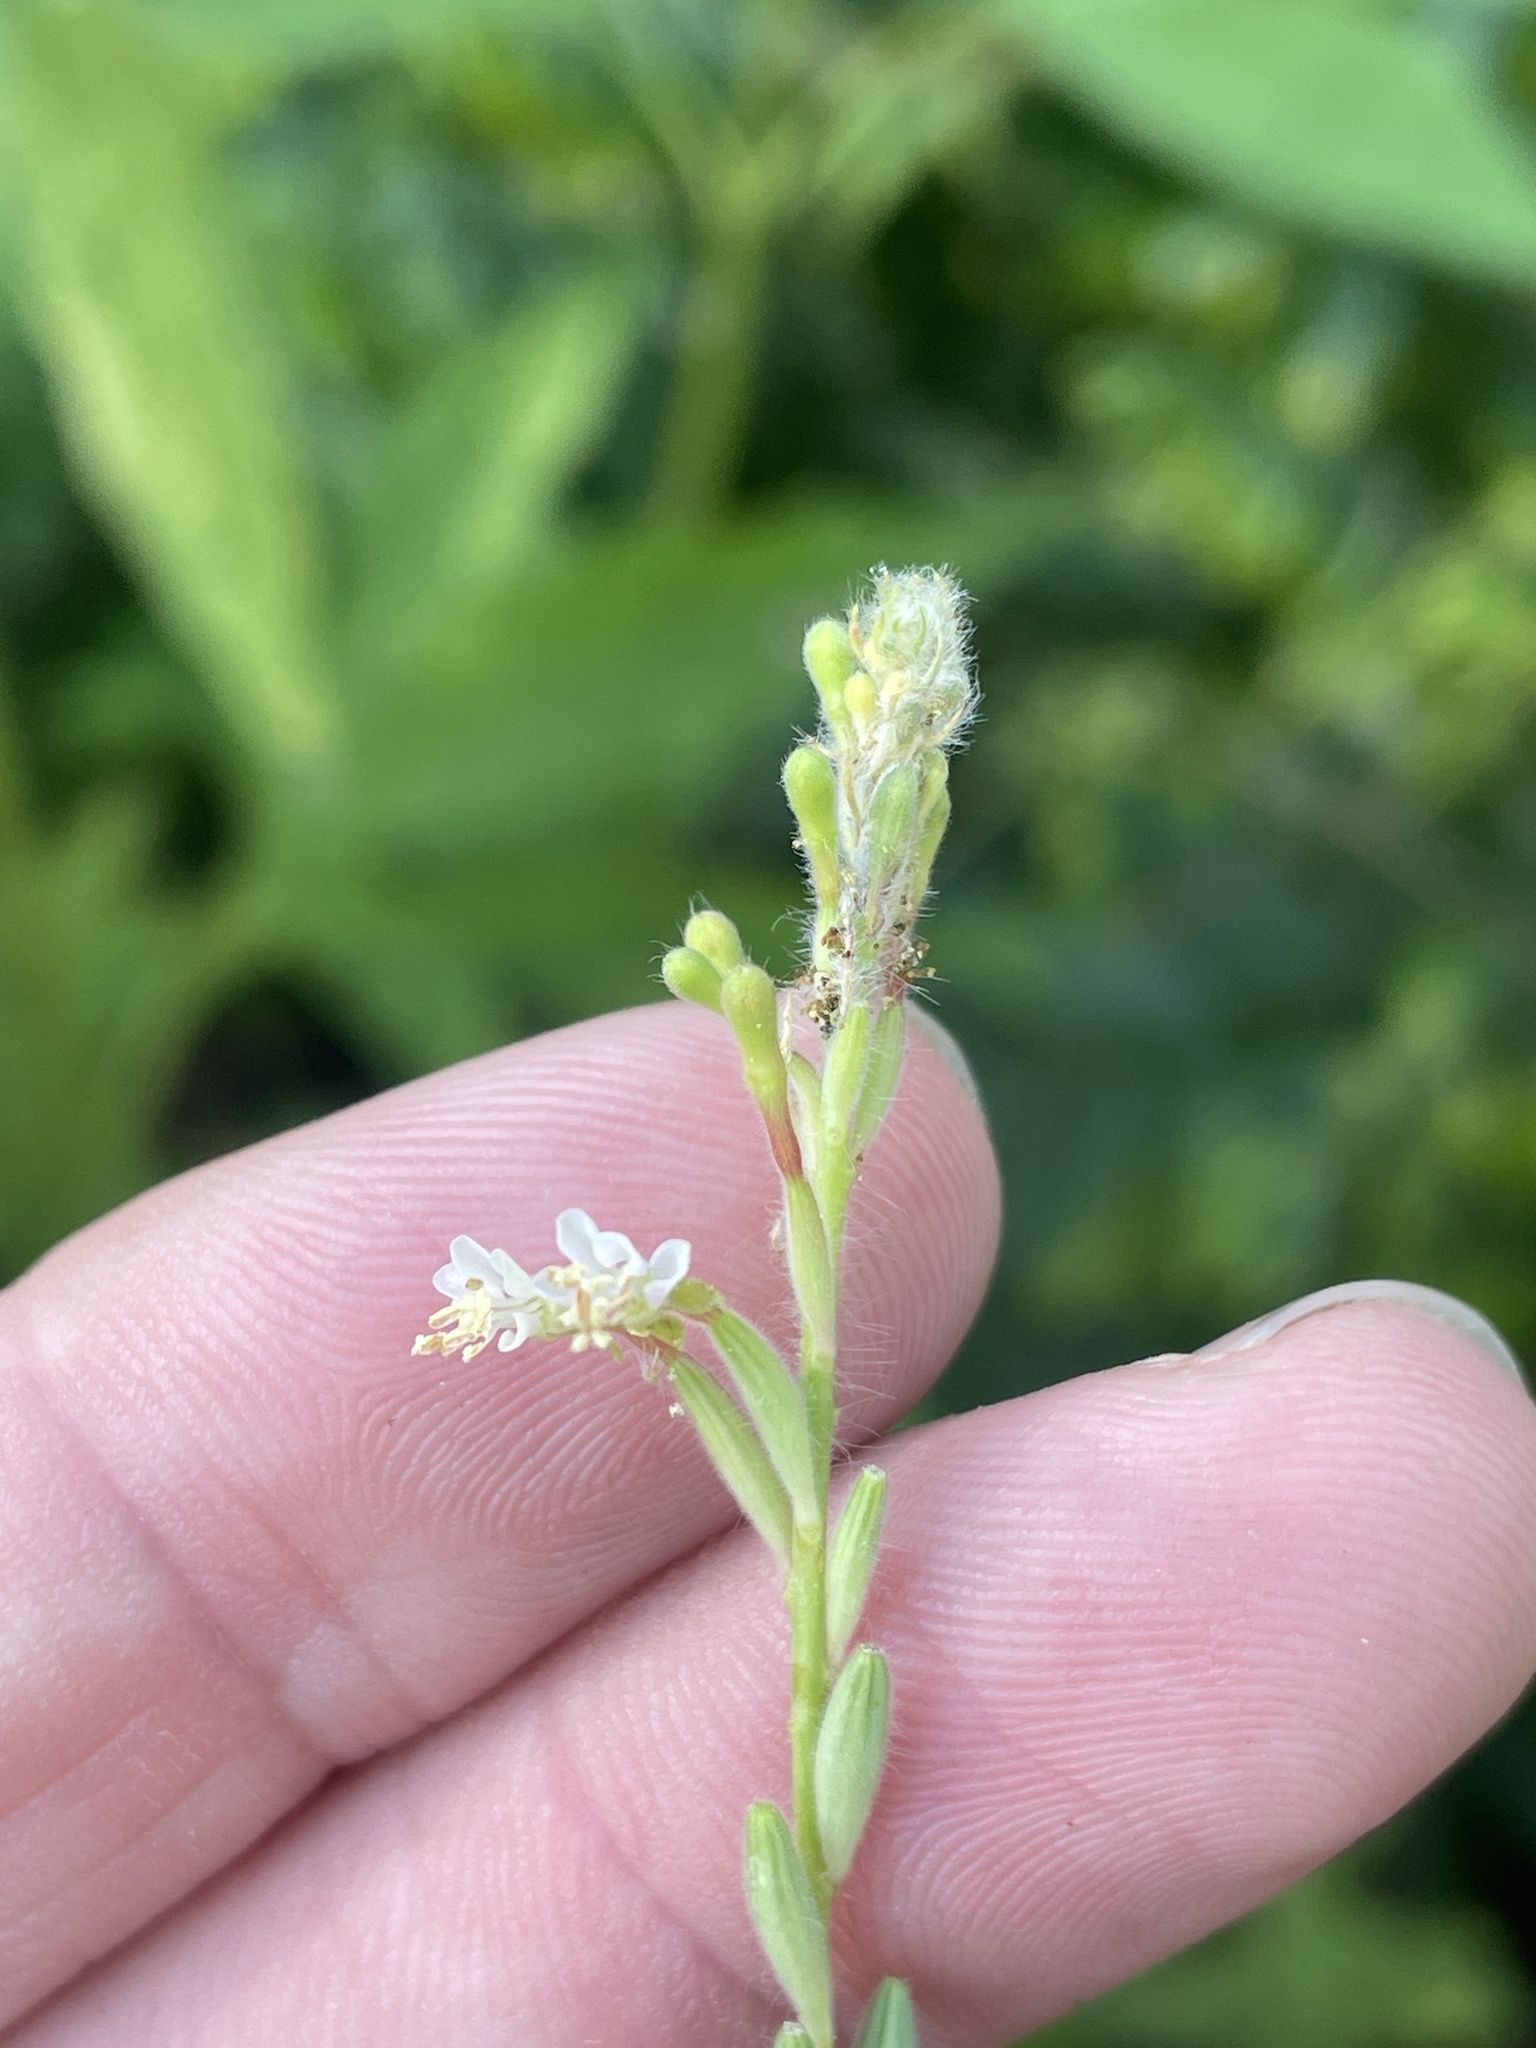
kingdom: Plantae
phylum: Tracheophyta
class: Magnoliopsida
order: Myrtales
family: Onagraceae
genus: Oenothera
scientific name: Oenothera curtiflora
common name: Velvetweed
